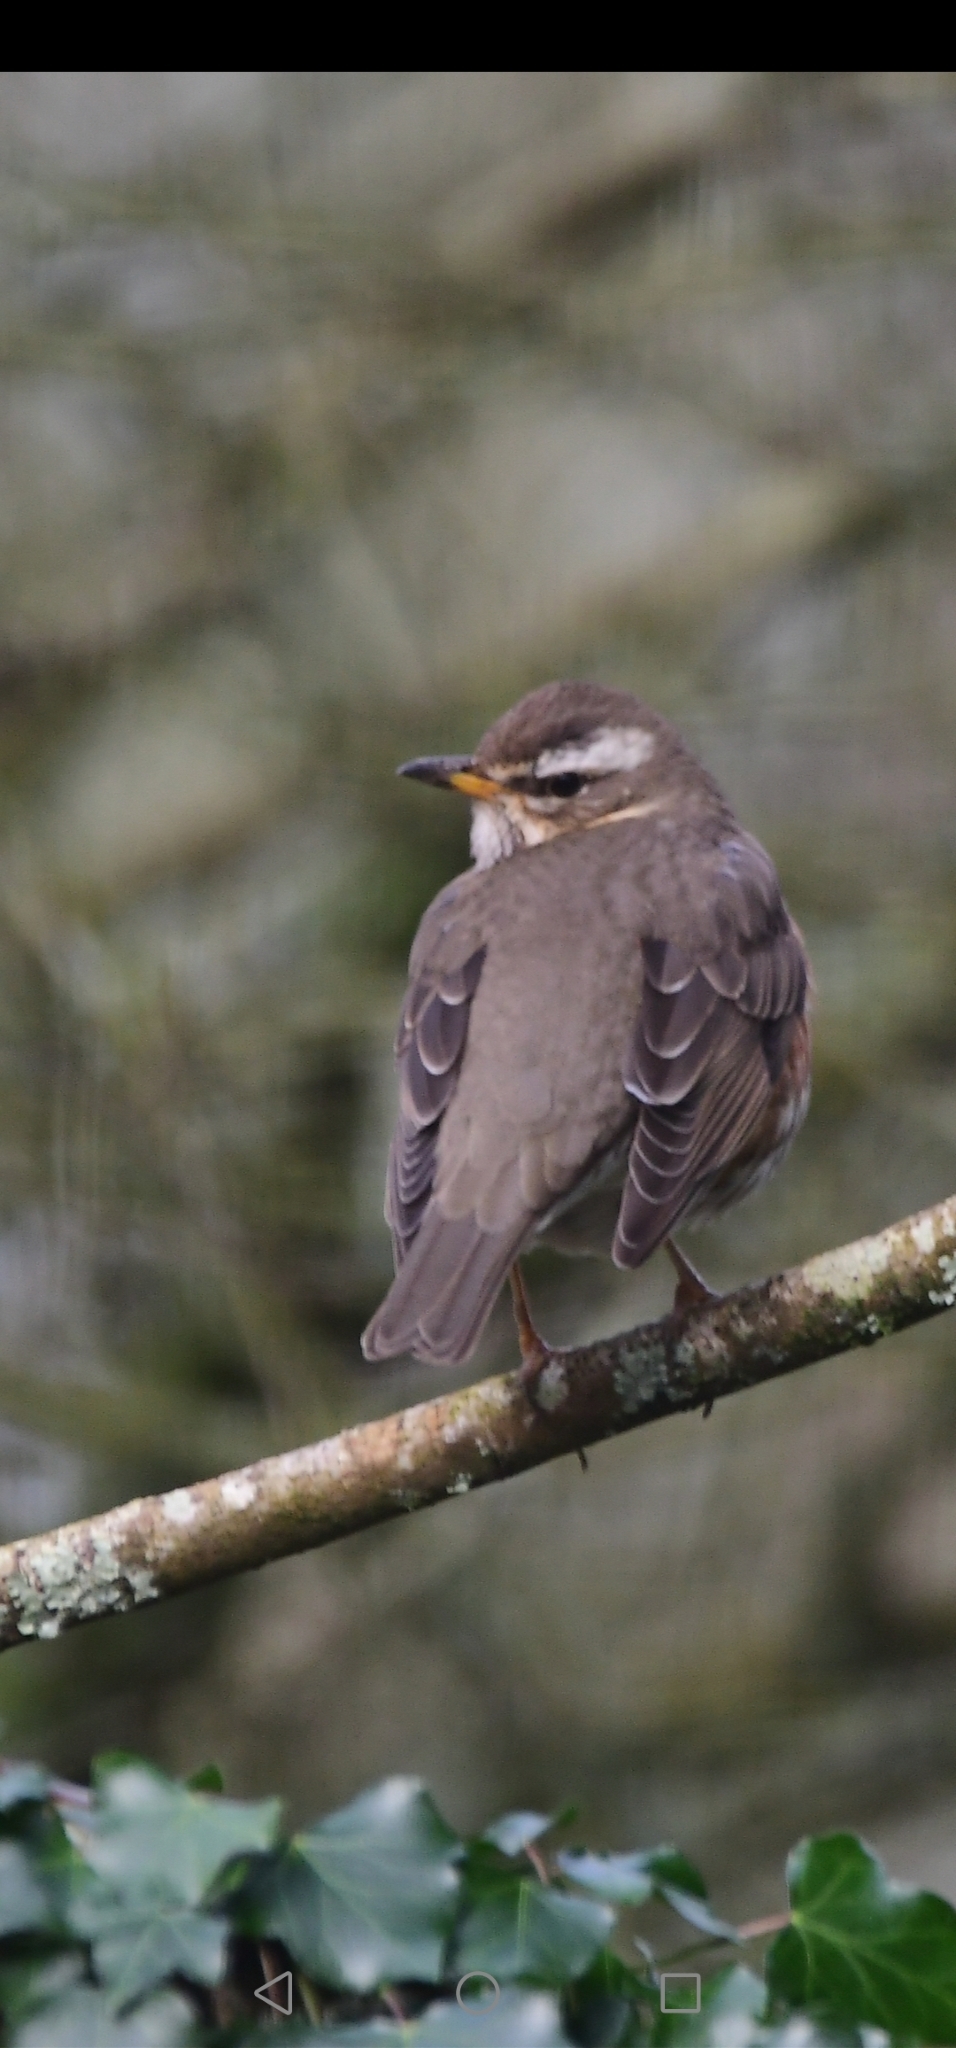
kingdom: Animalia
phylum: Chordata
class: Aves
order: Passeriformes
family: Turdidae
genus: Turdus
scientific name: Turdus iliacus
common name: Redwing
